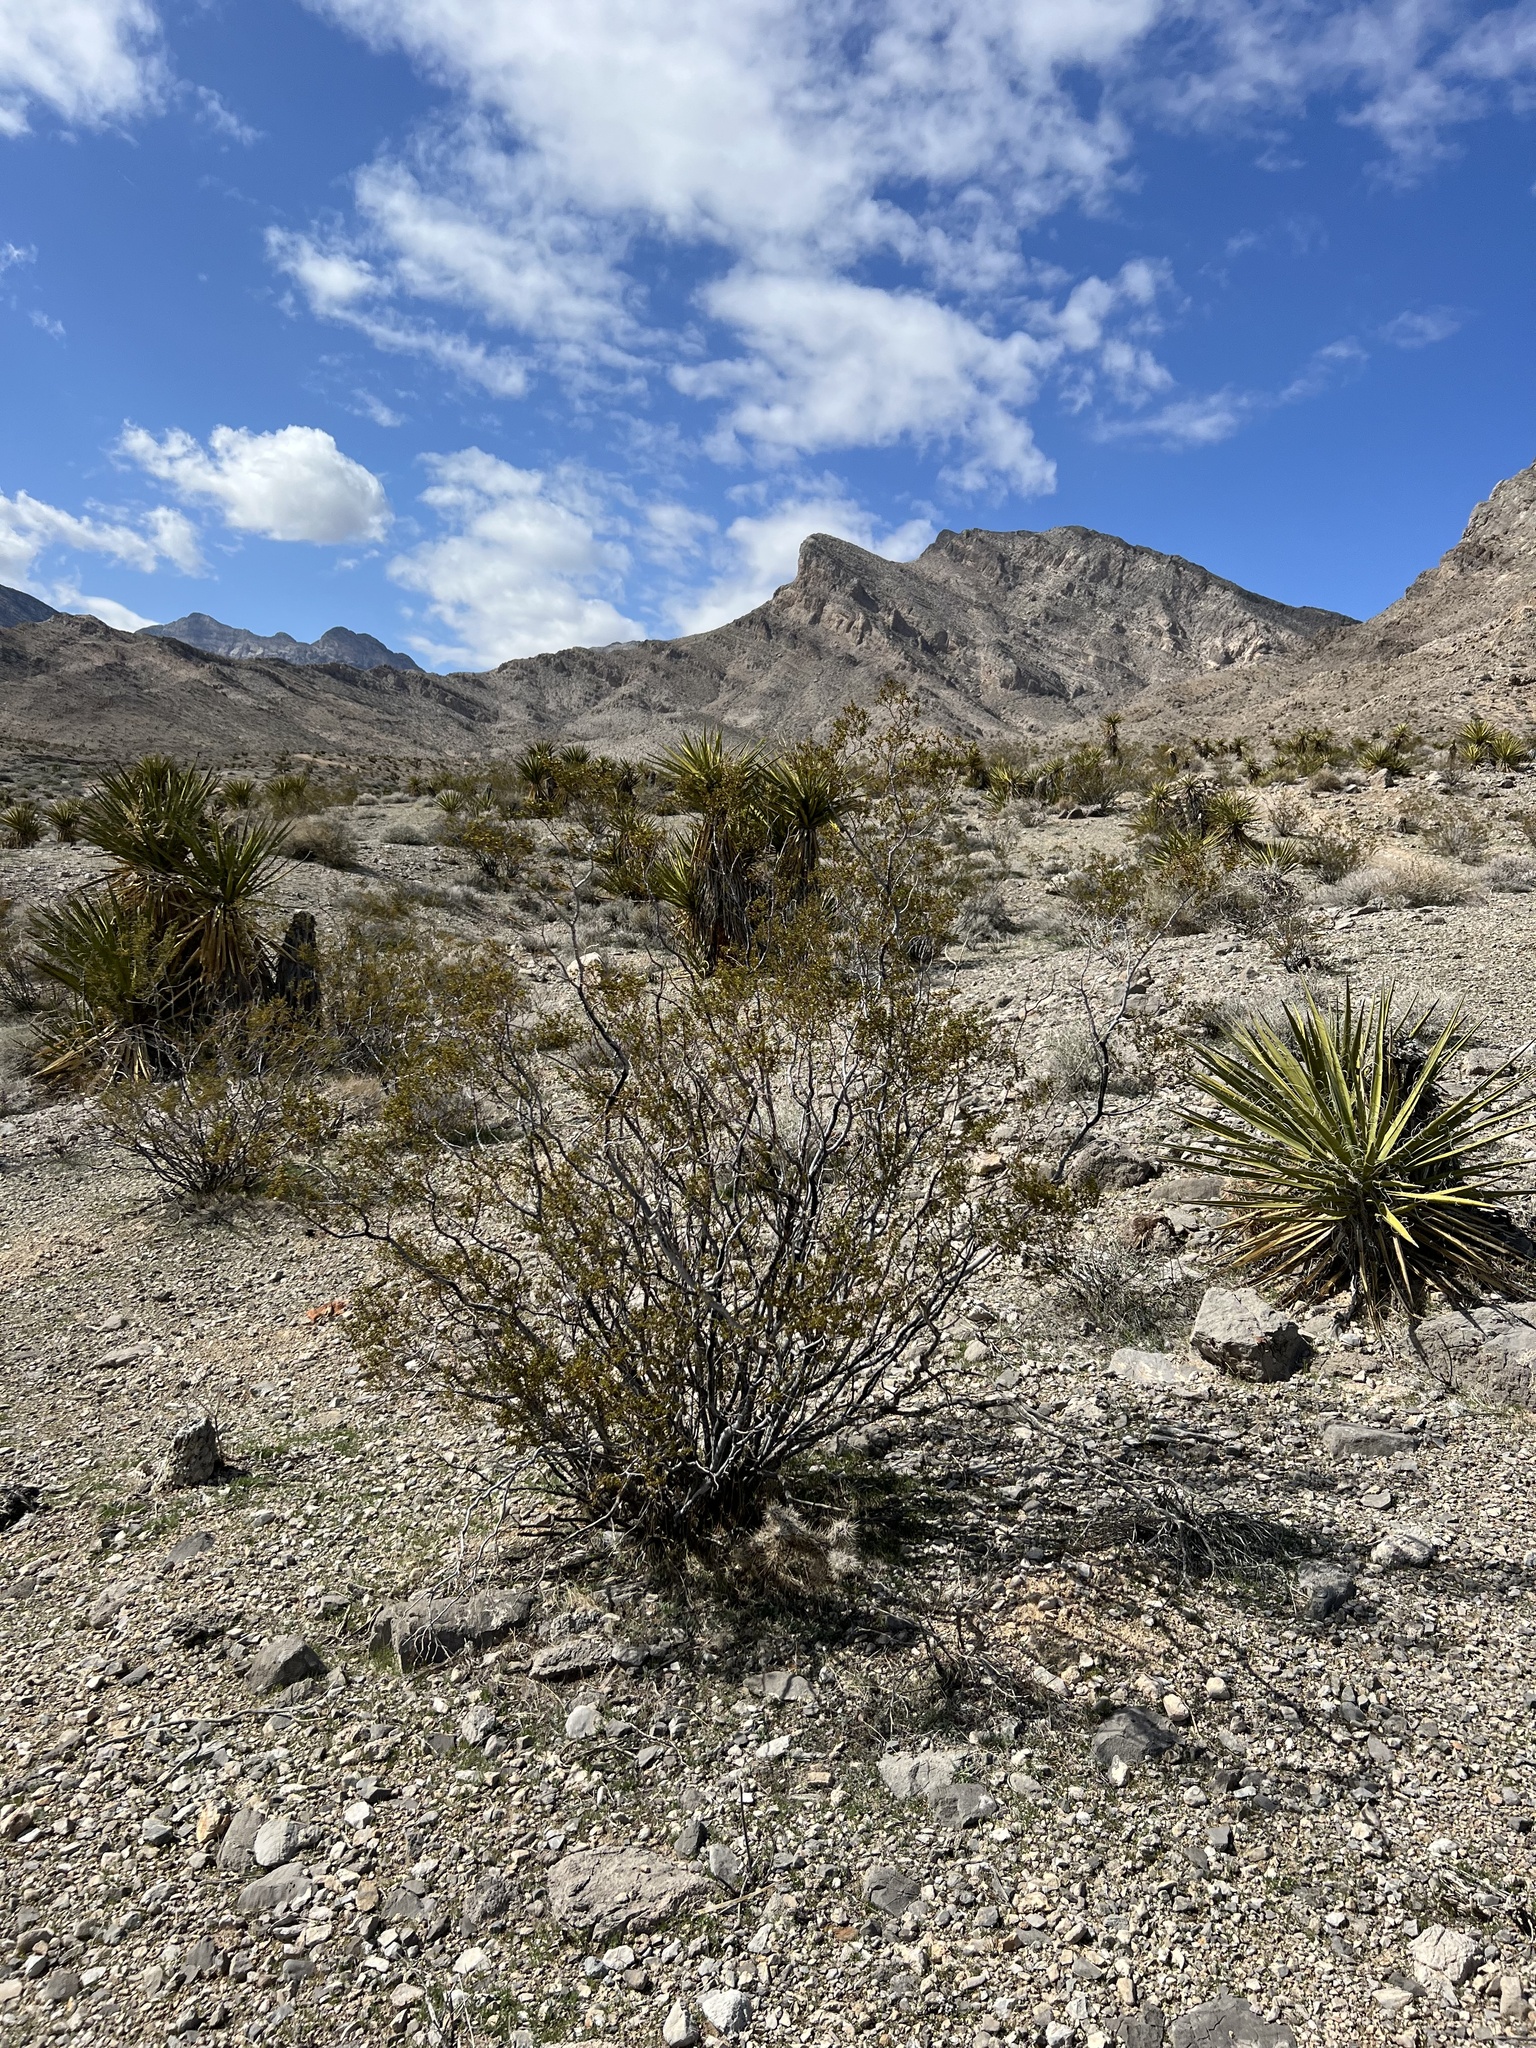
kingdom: Plantae
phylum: Tracheophyta
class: Magnoliopsida
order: Zygophyllales
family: Zygophyllaceae
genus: Larrea
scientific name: Larrea tridentata
